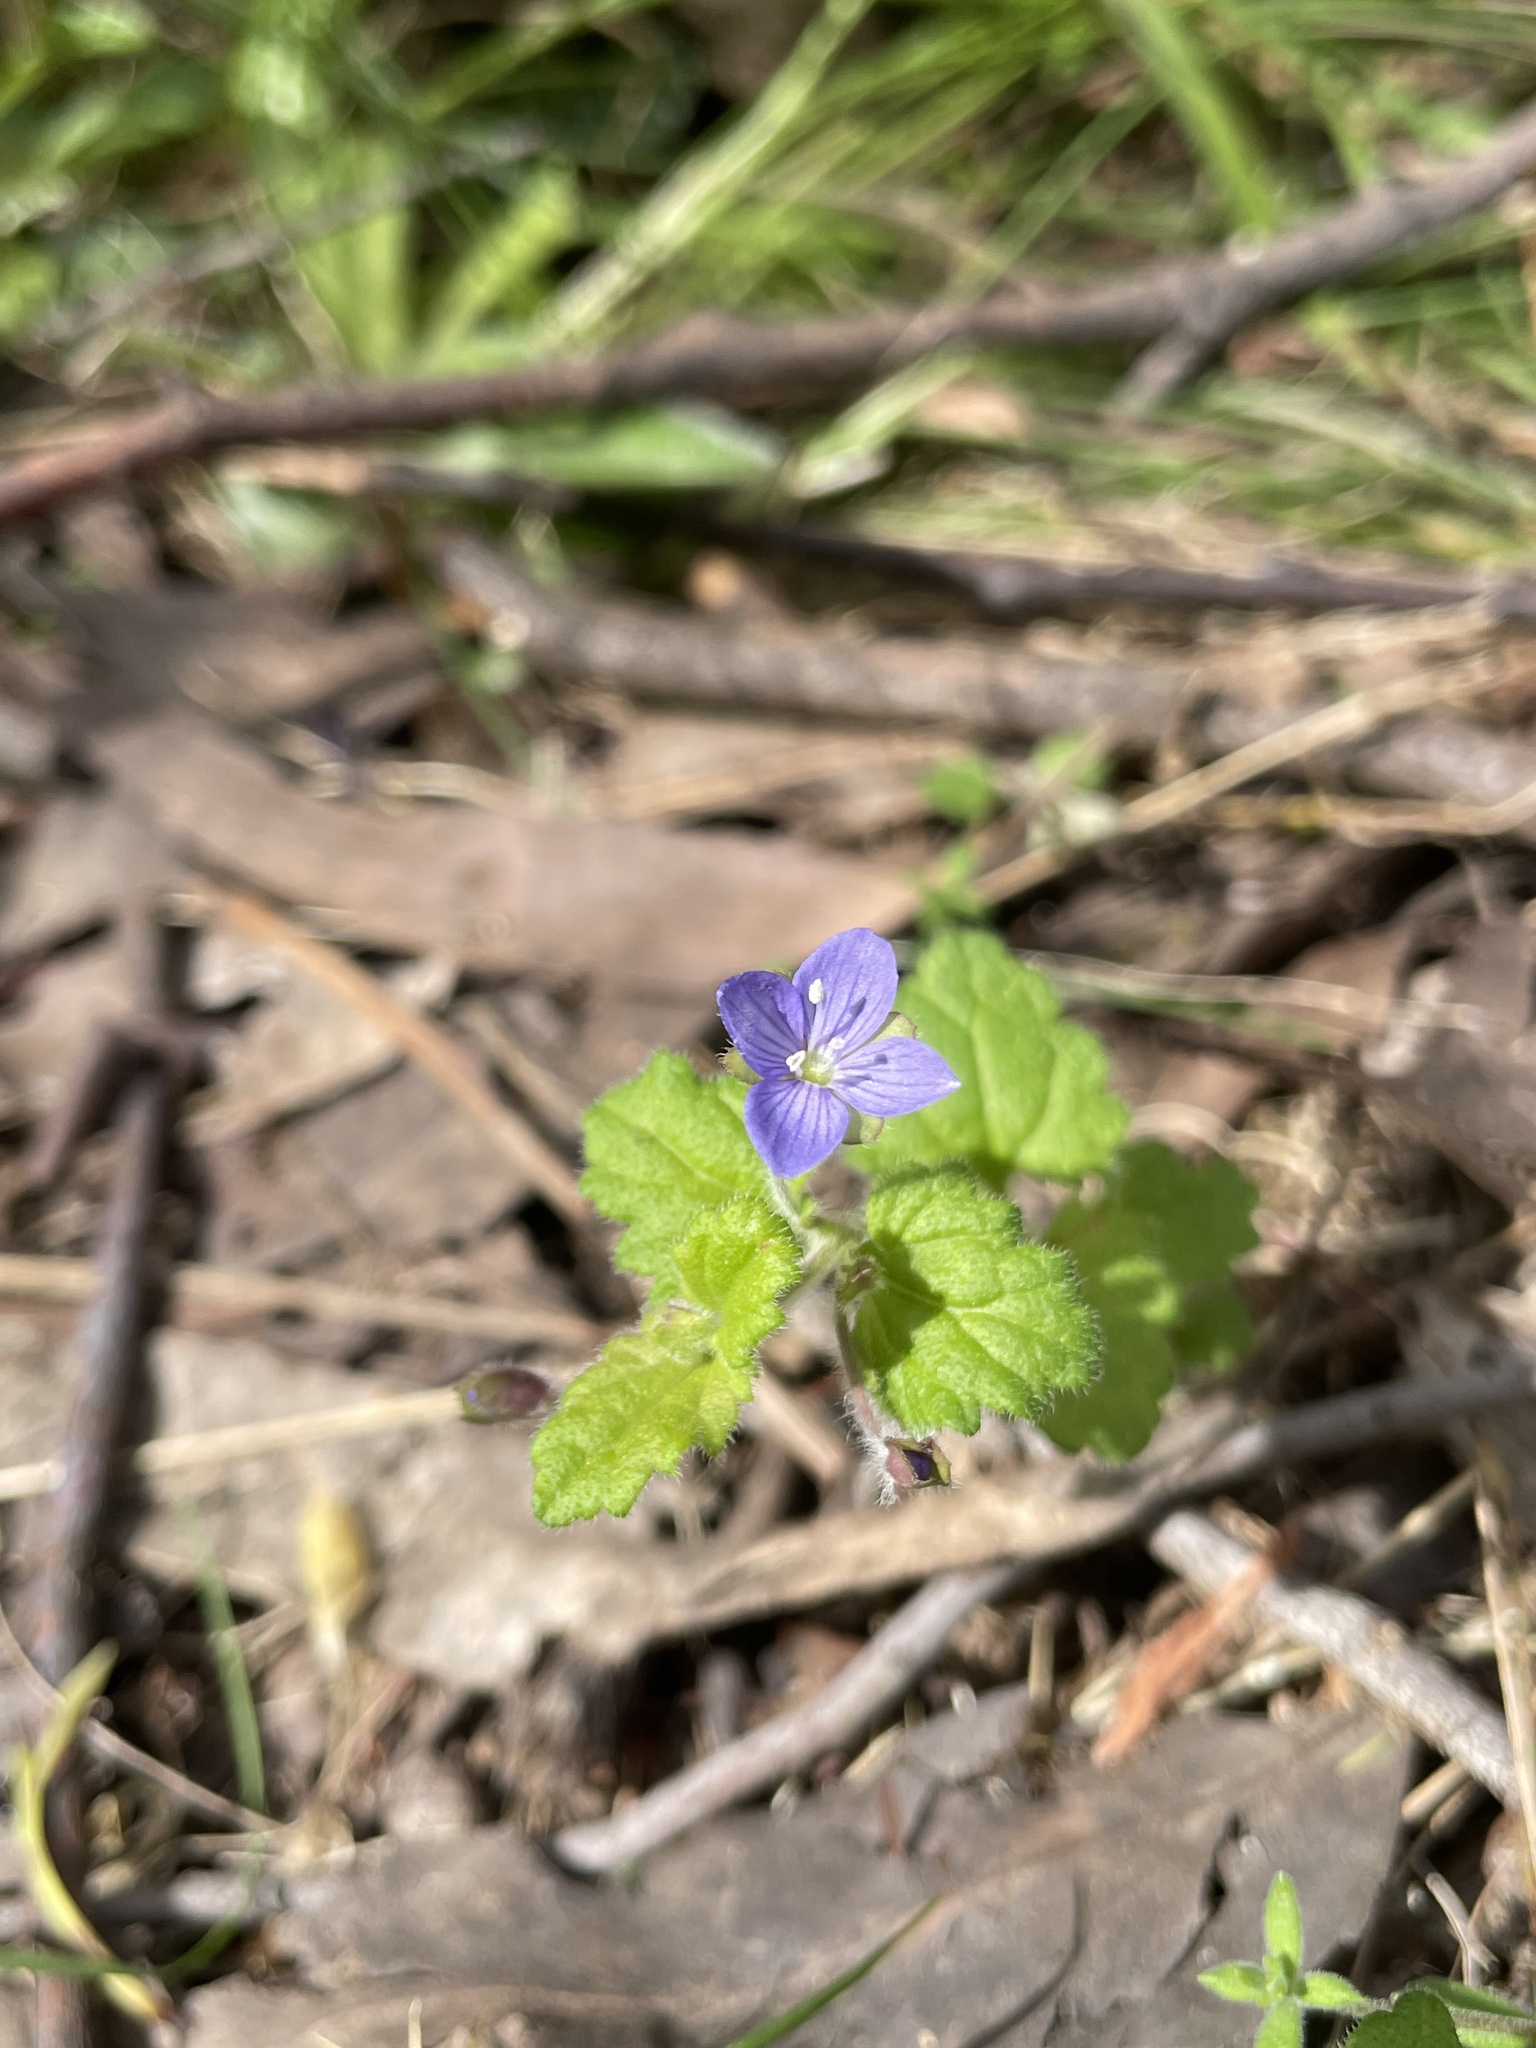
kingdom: Plantae
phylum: Tracheophyta
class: Magnoliopsida
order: Lamiales
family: Plantaginaceae
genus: Veronica
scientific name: Veronica calycina
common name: Cup speedwell
